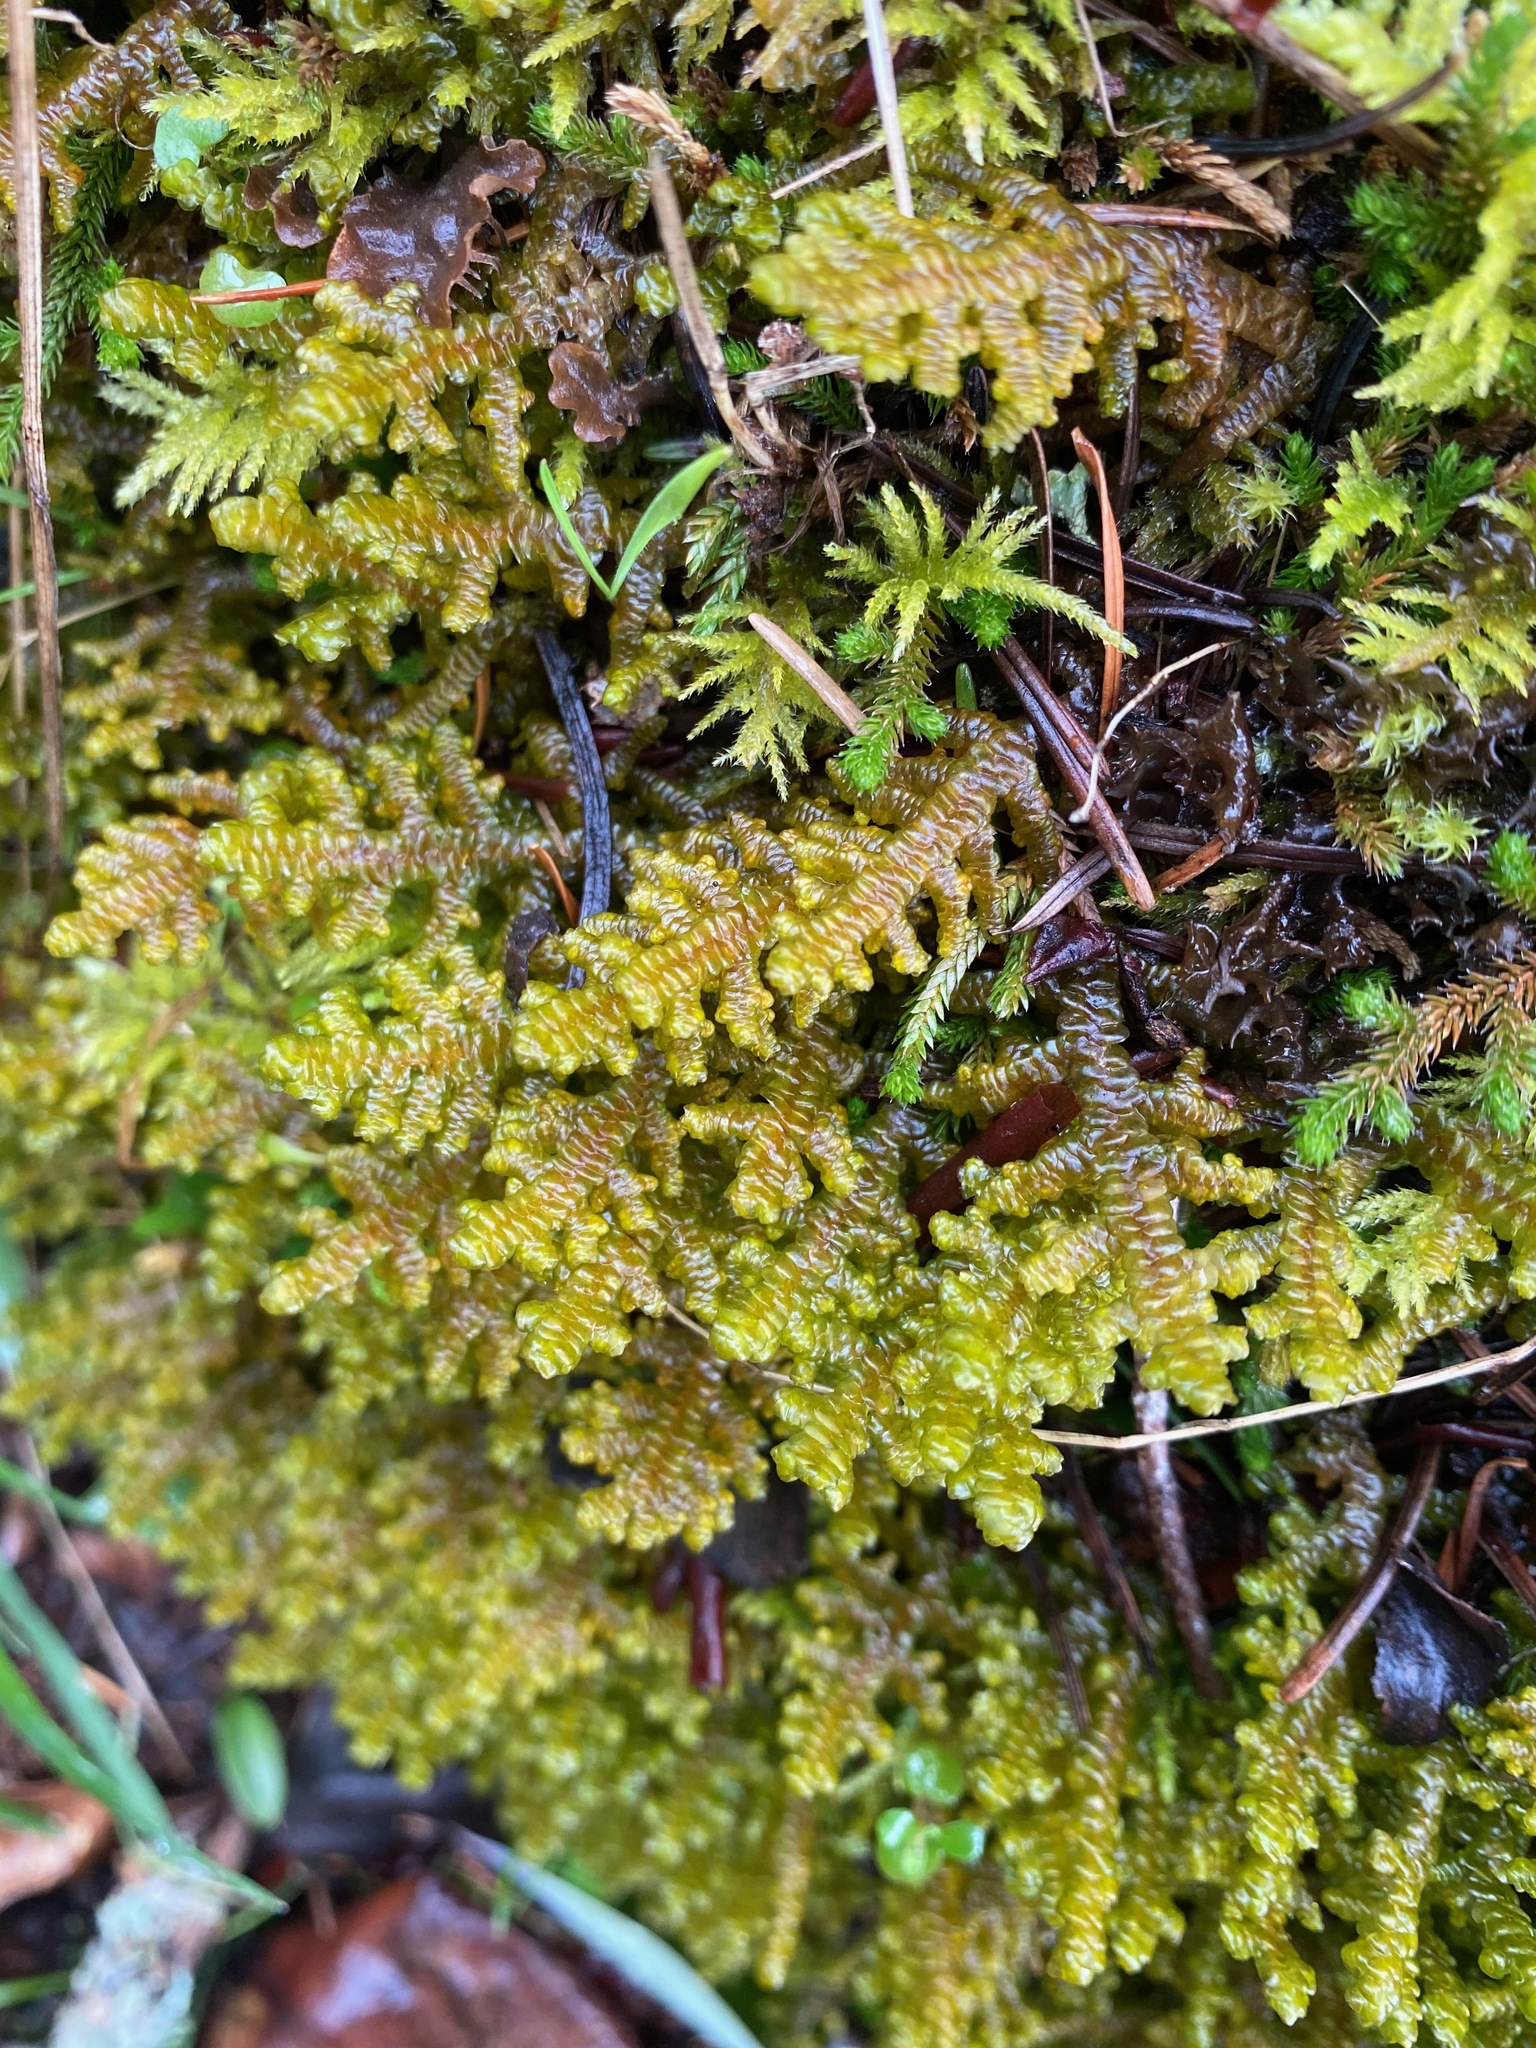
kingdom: Plantae
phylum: Marchantiophyta
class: Jungermanniopsida
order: Porellales
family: Porellaceae
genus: Porella
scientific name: Porella navicularis
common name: Tree ruffle liverwort
